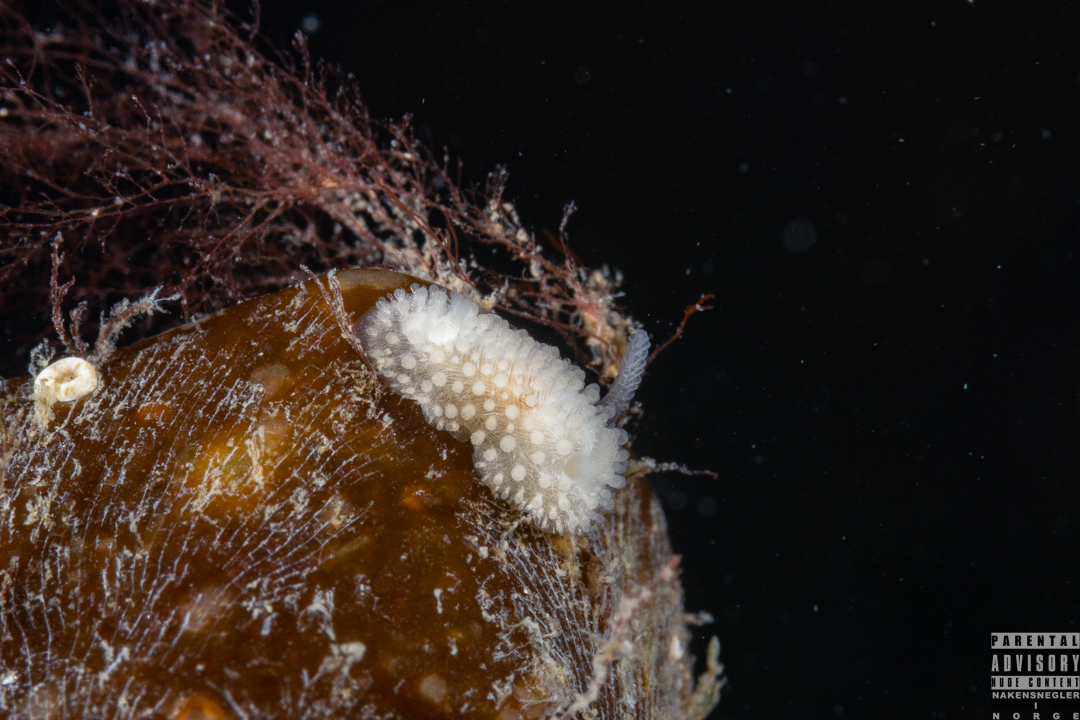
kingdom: Animalia
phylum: Mollusca
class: Gastropoda
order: Nudibranchia
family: Onchidorididae
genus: Onchidoris
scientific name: Onchidoris muricata
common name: Rough doris
